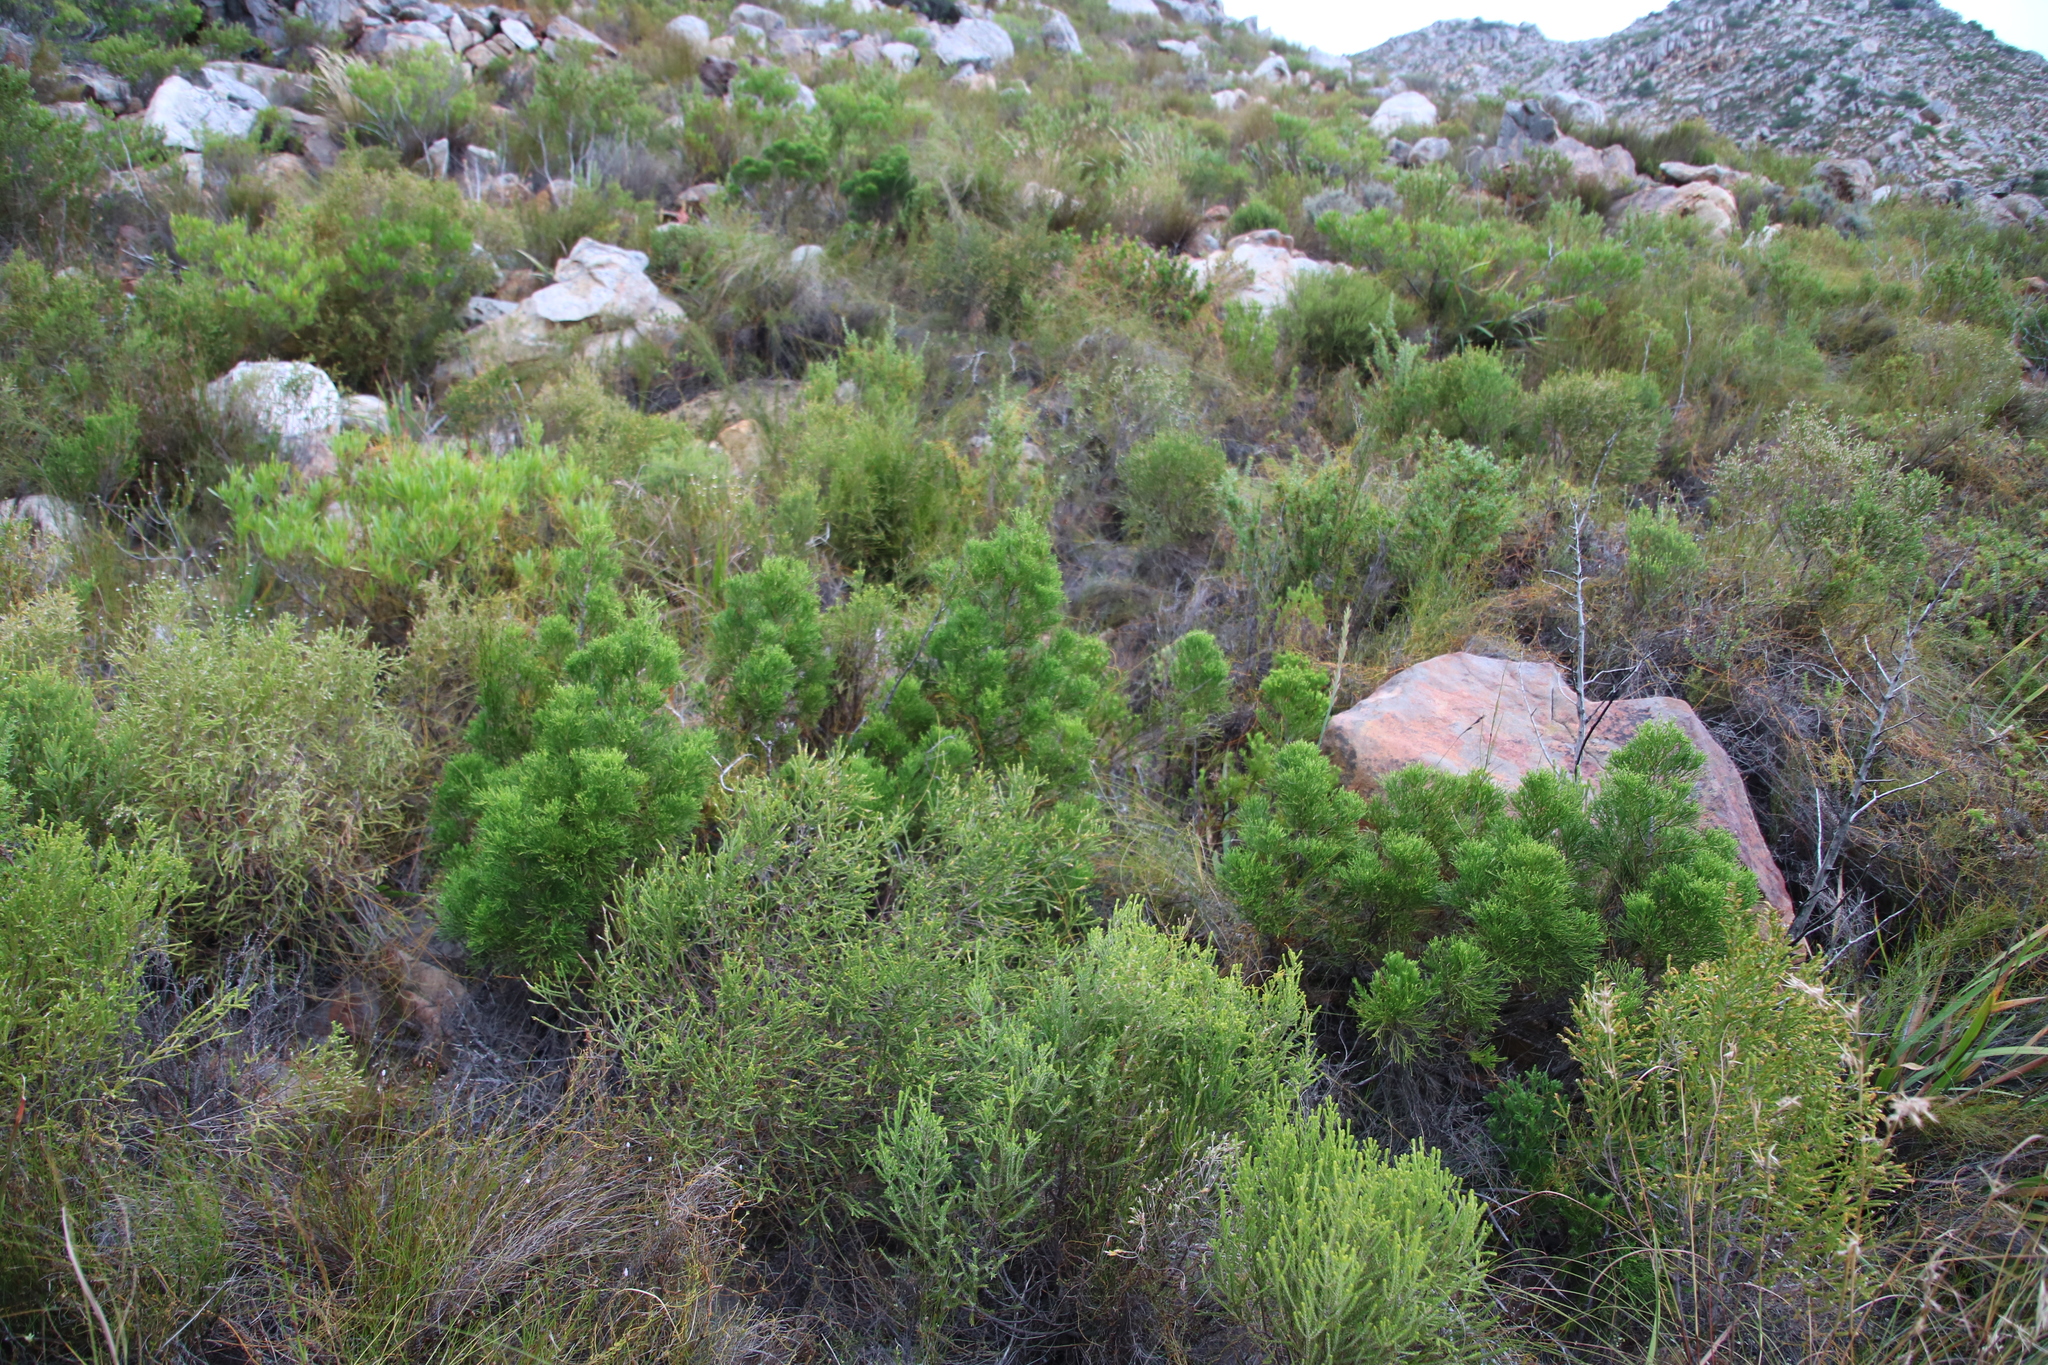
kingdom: Plantae
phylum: Tracheophyta
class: Pinopsida
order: Pinales
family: Cupressaceae
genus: Widdringtonia
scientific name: Widdringtonia nodiflora
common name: Cape cypress
